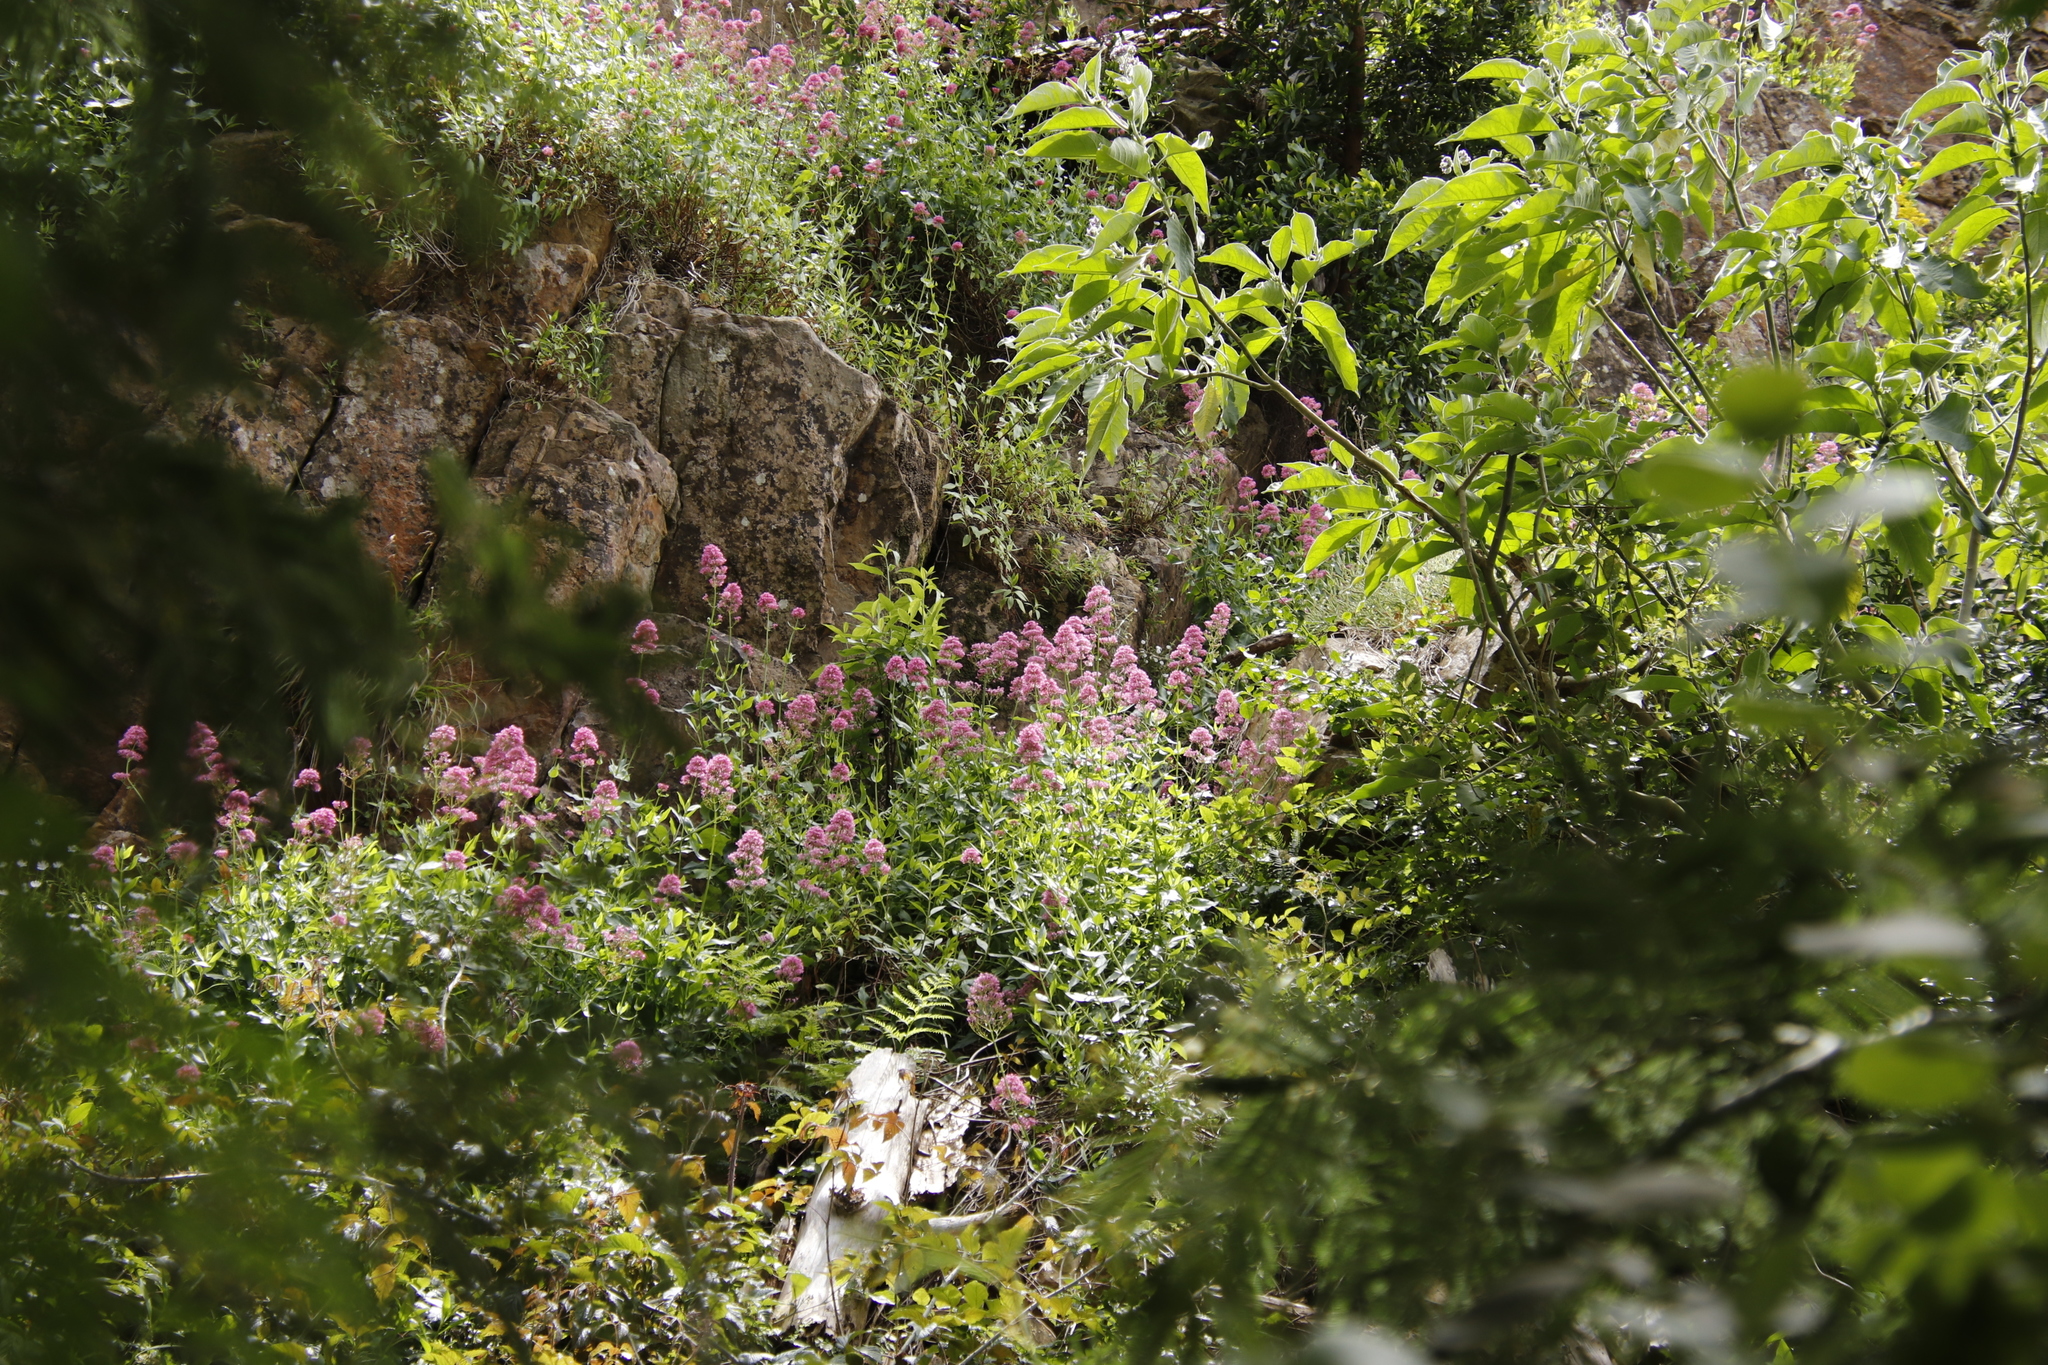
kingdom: Plantae
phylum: Tracheophyta
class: Magnoliopsida
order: Dipsacales
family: Caprifoliaceae
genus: Centranthus
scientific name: Centranthus ruber
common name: Red valerian
